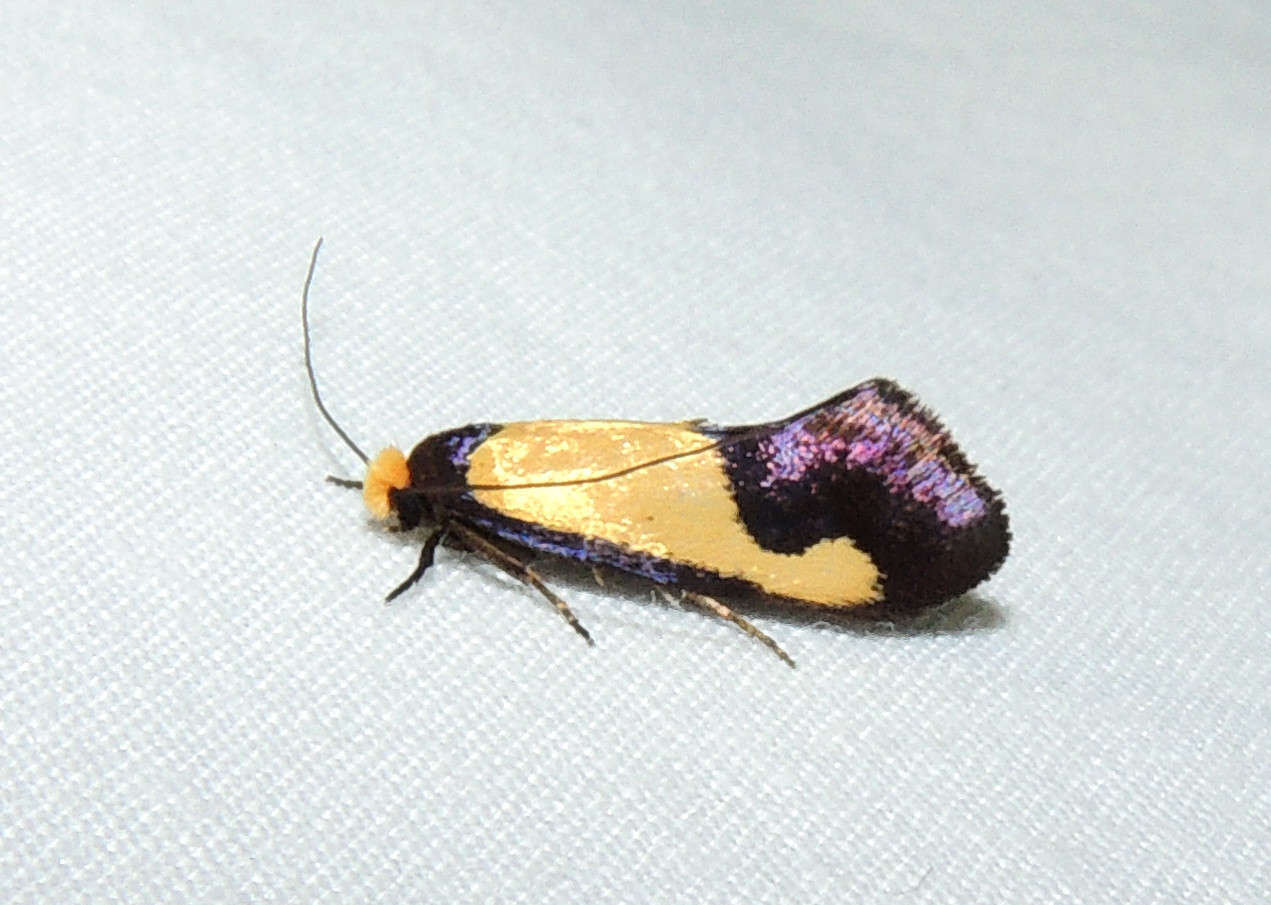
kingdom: Animalia
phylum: Arthropoda
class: Insecta
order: Lepidoptera
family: Tineidae
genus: Edosa
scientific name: Edosa irruptella
